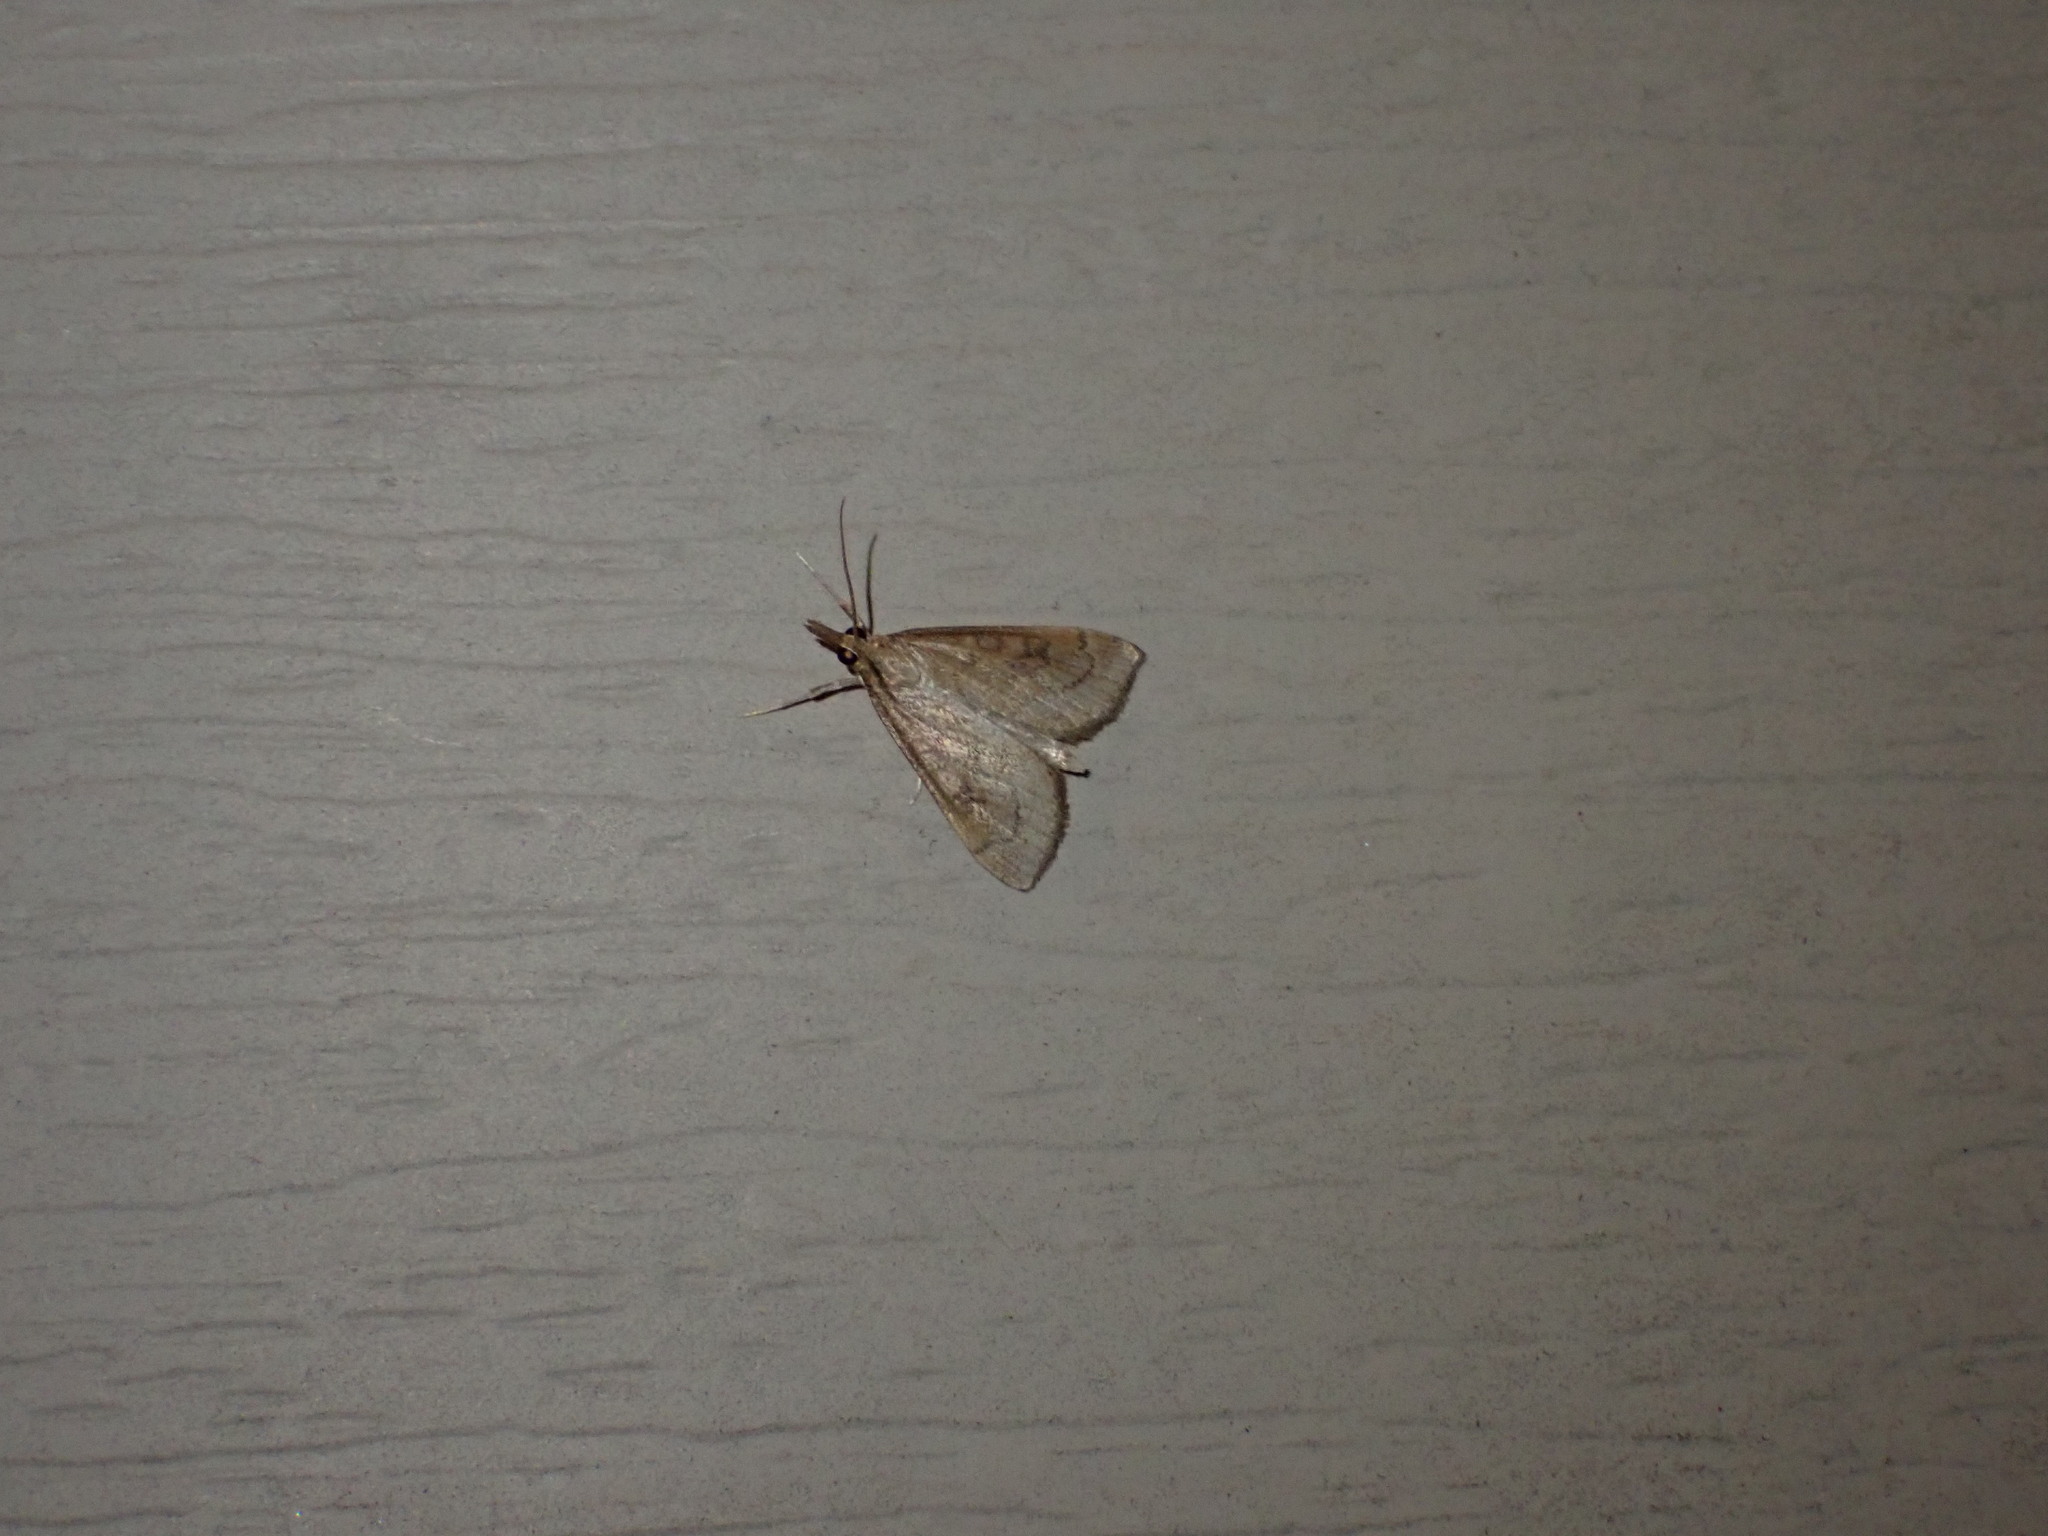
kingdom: Animalia
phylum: Arthropoda
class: Insecta
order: Lepidoptera
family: Crambidae
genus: Udea
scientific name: Udea rubigalis
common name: Celery leaftier moth
